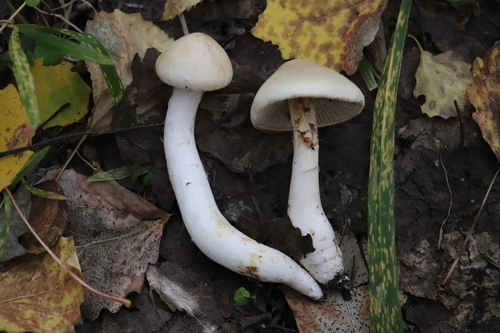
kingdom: Fungi
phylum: Basidiomycota
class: Agaricomycetes
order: Agaricales
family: Cortinariaceae
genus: Phlegmacium
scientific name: Phlegmacium argutum
